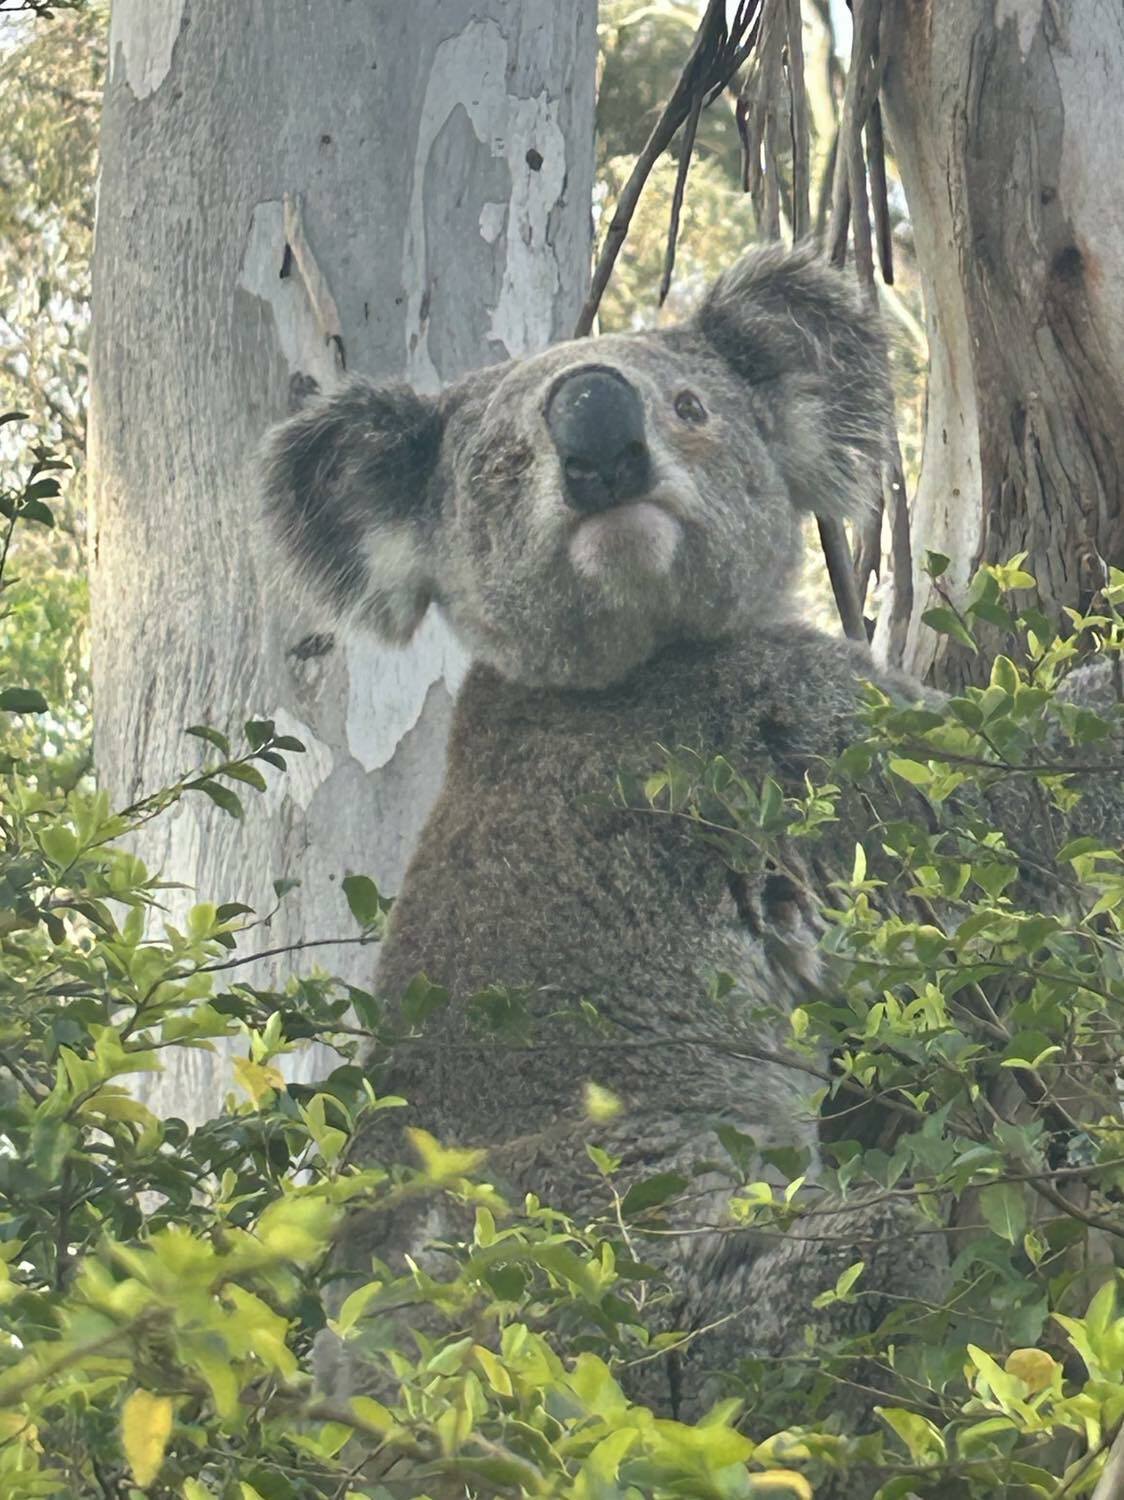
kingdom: Animalia
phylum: Chordata
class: Mammalia
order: Diprotodontia
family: Phascolarctidae
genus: Phascolarctos
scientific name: Phascolarctos cinereus
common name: Koala
